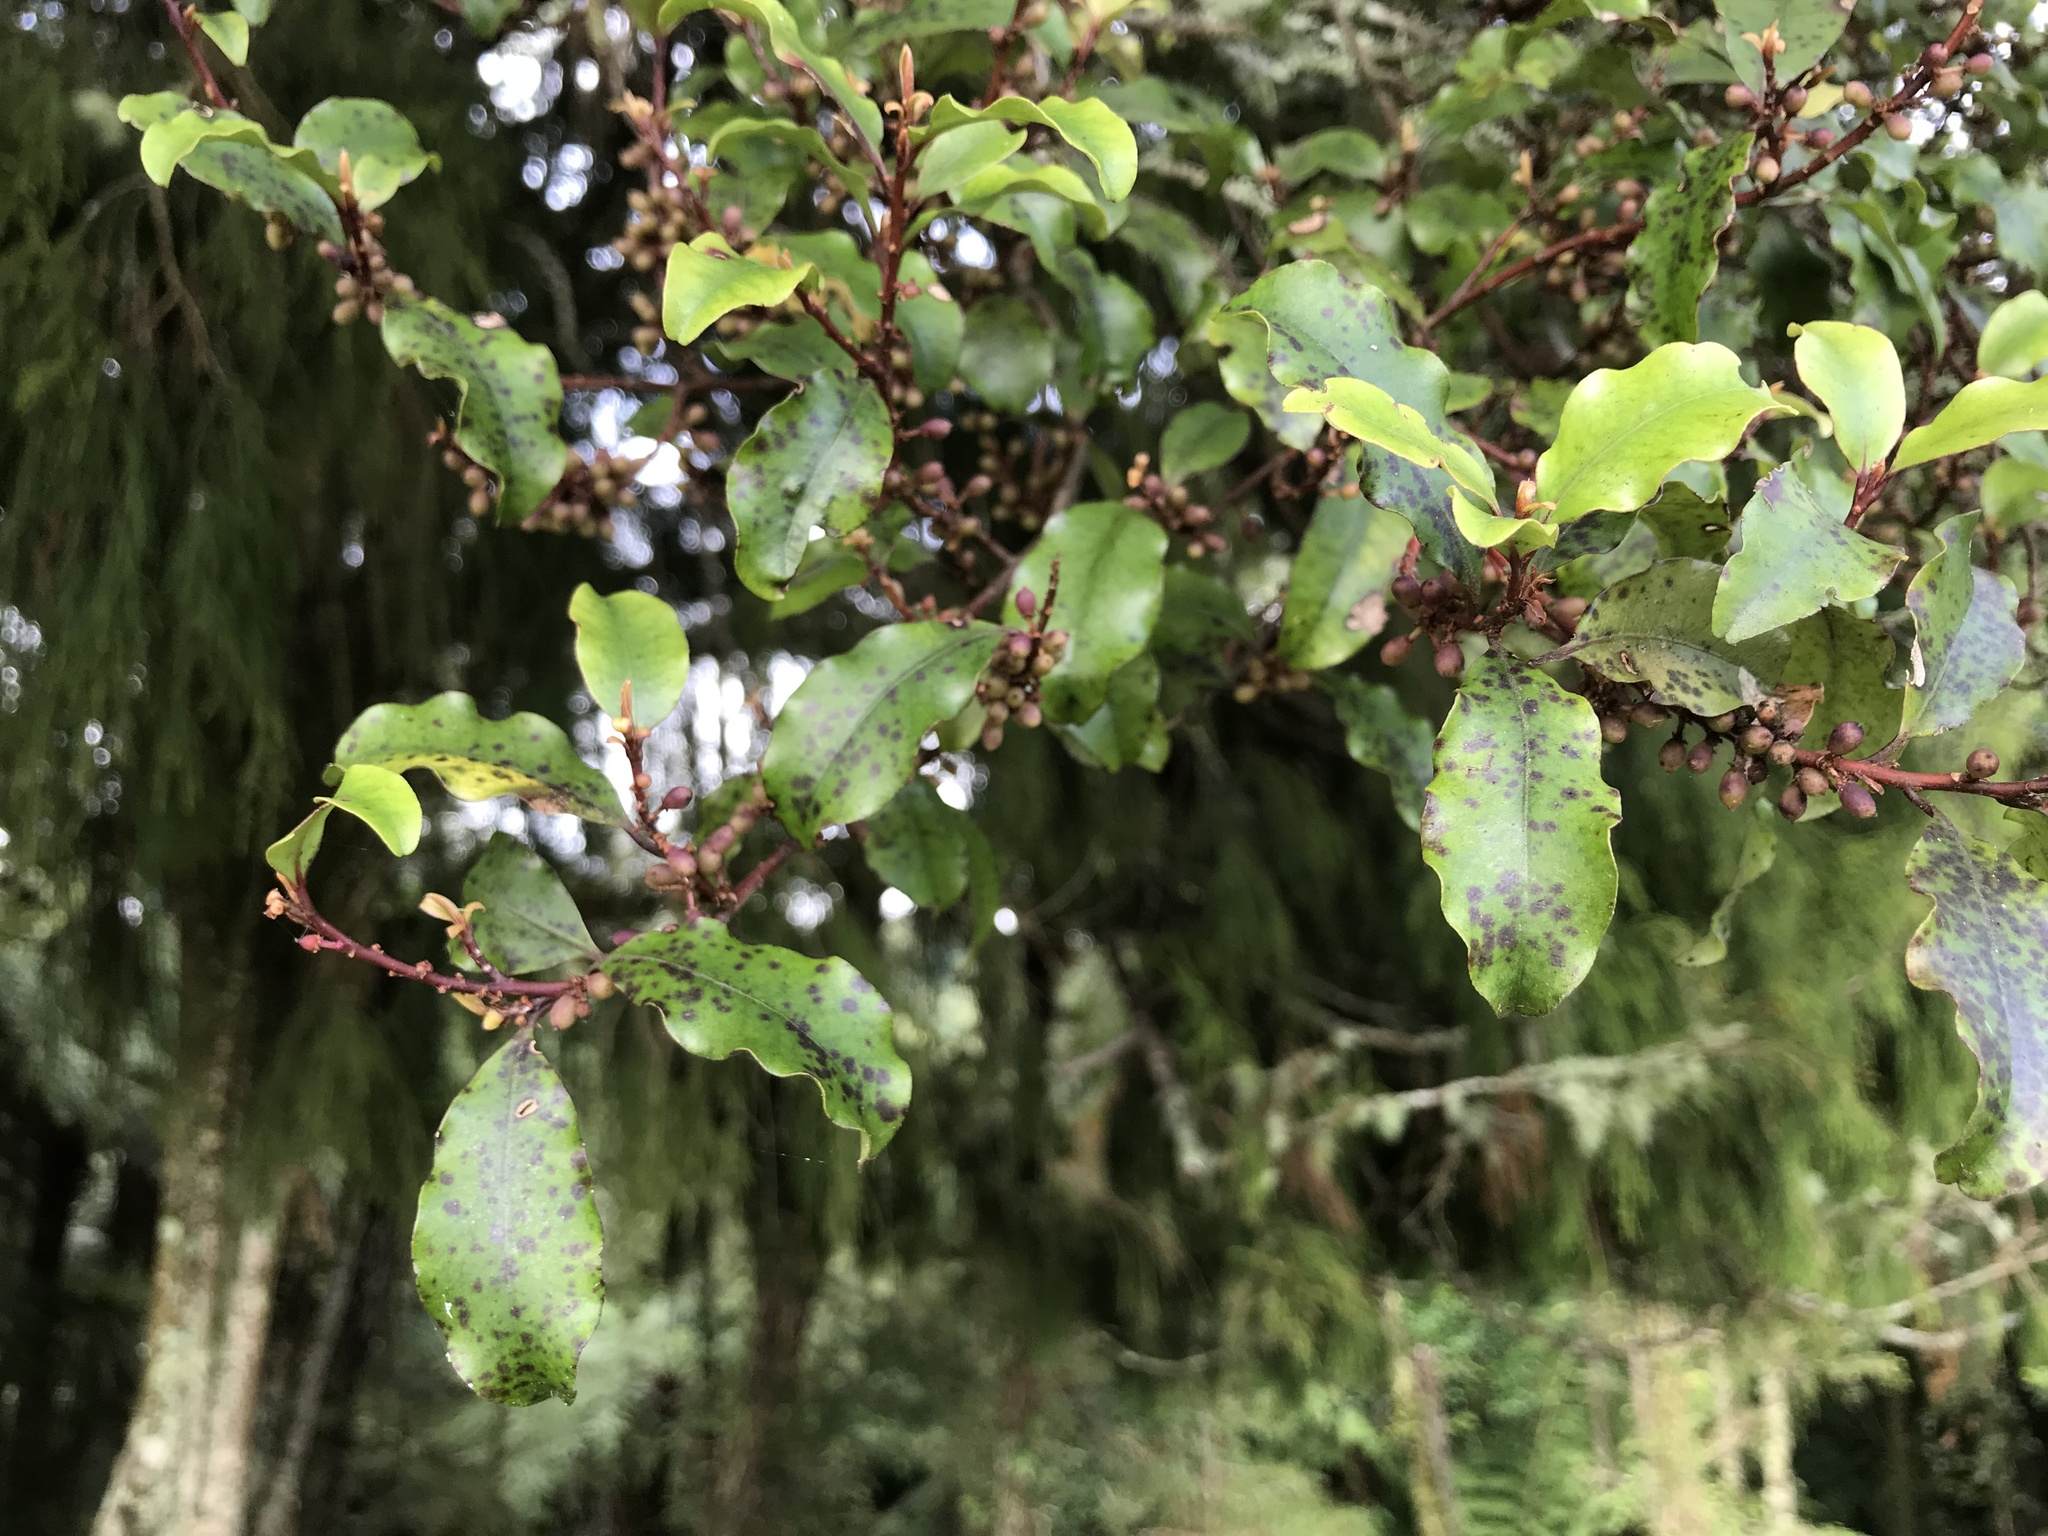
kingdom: Plantae
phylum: Tracheophyta
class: Magnoliopsida
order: Ericales
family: Primulaceae
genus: Myrsine
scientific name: Myrsine australis
